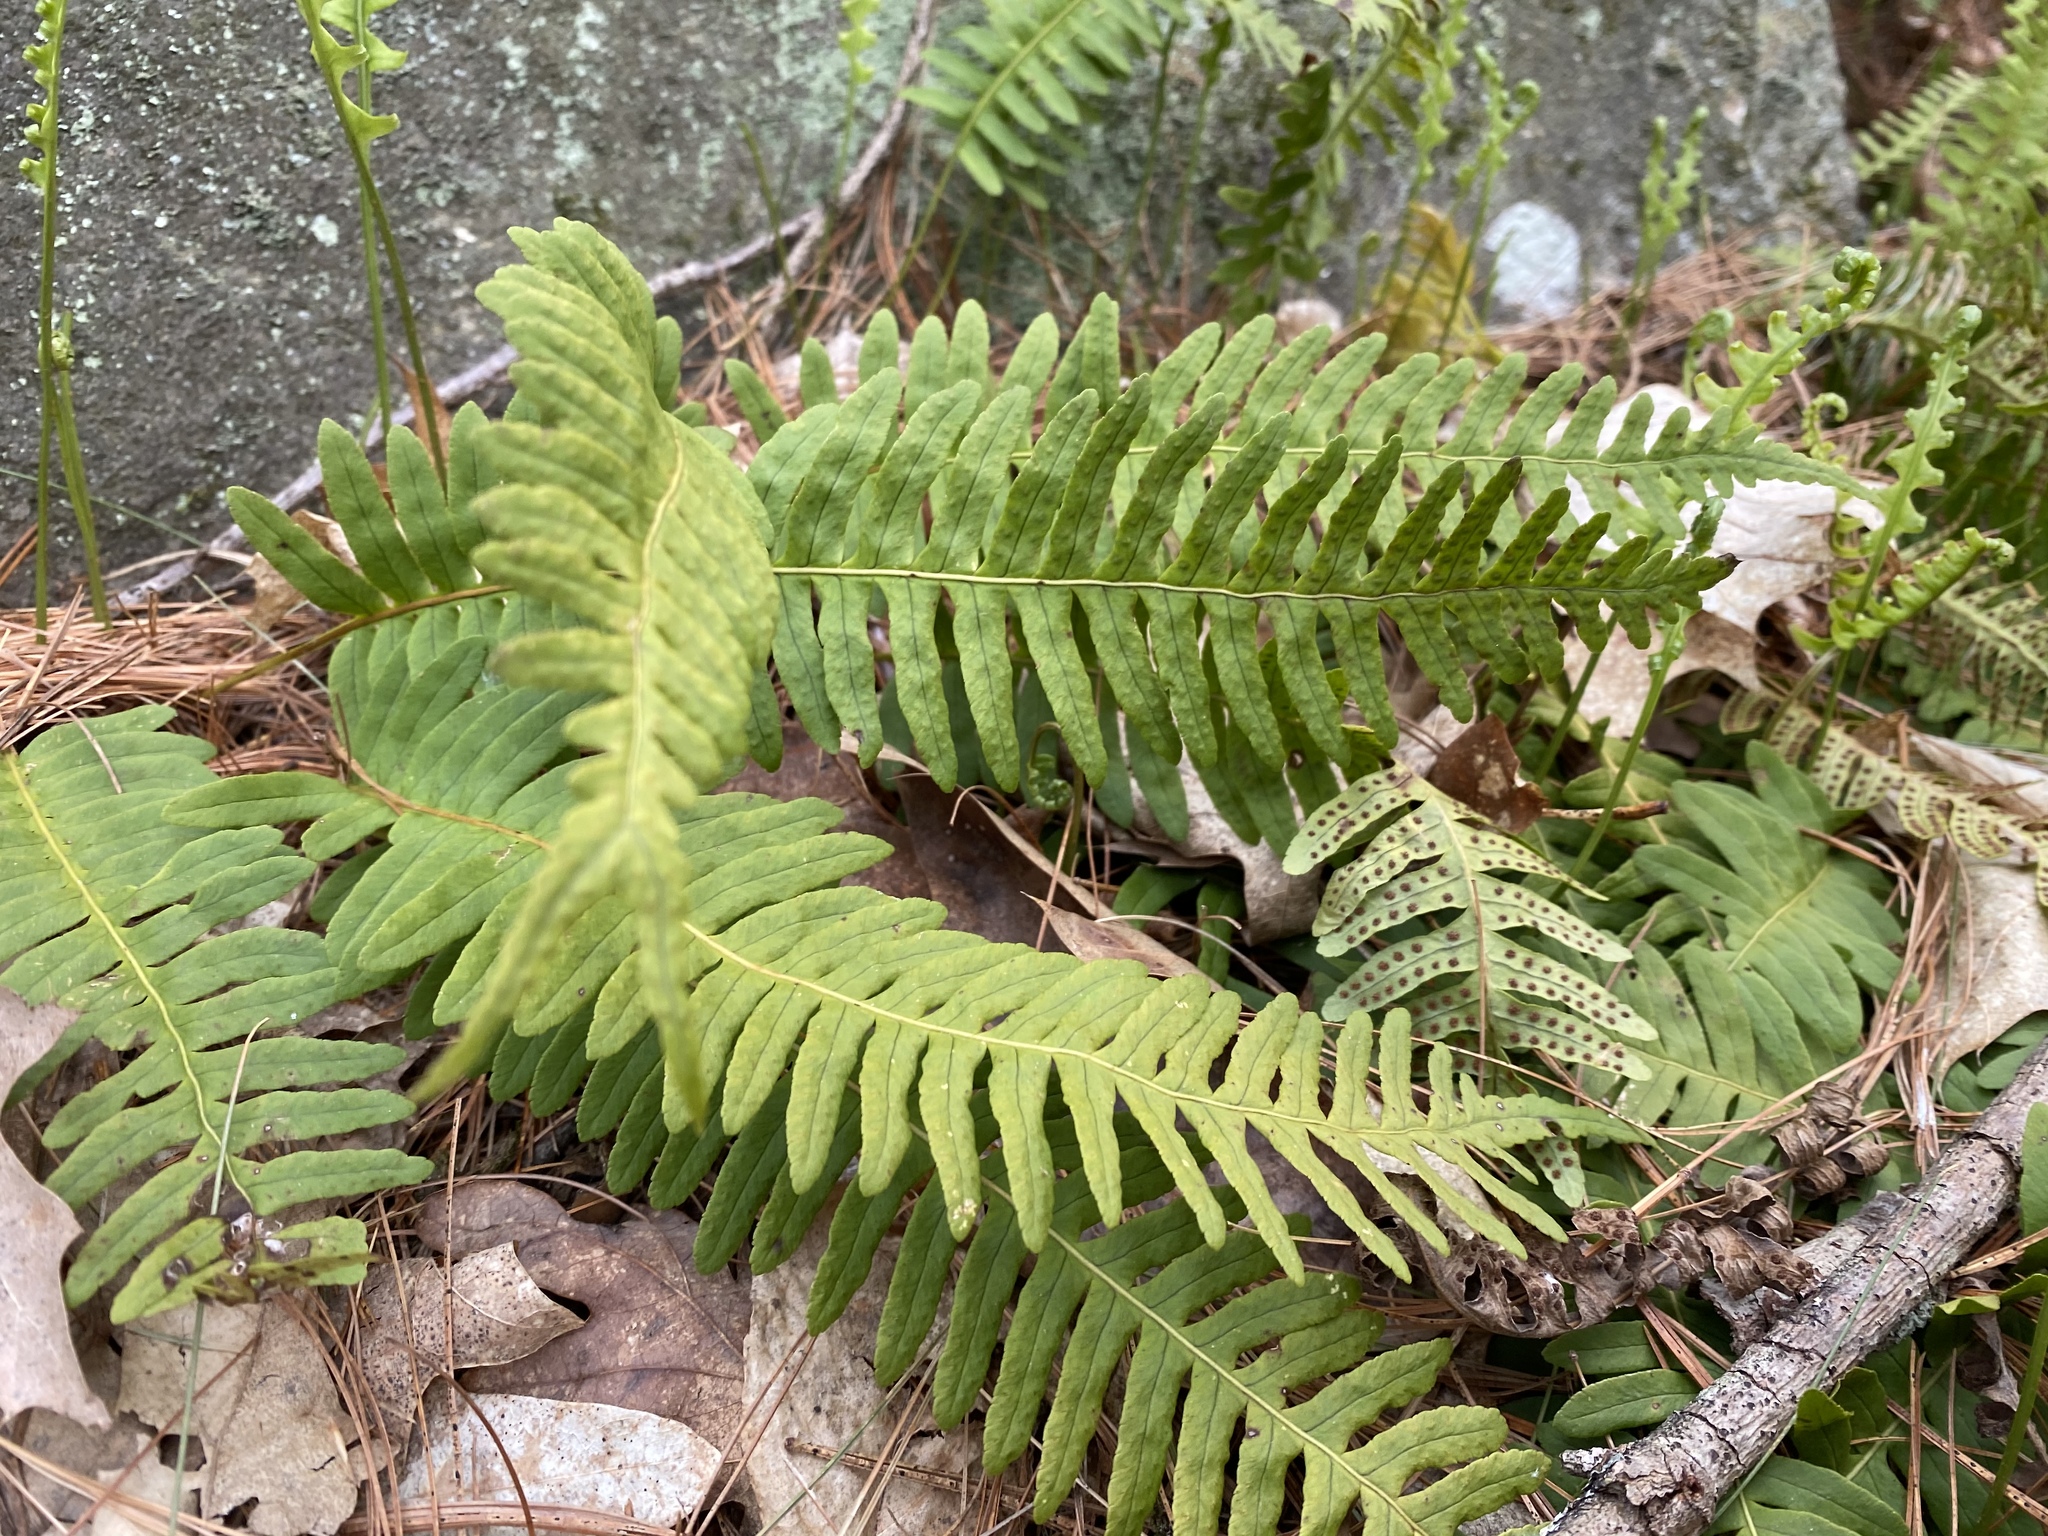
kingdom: Plantae
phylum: Tracheophyta
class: Polypodiopsida
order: Polypodiales
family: Polypodiaceae
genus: Polypodium
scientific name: Polypodium virginianum
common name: American wall fern
